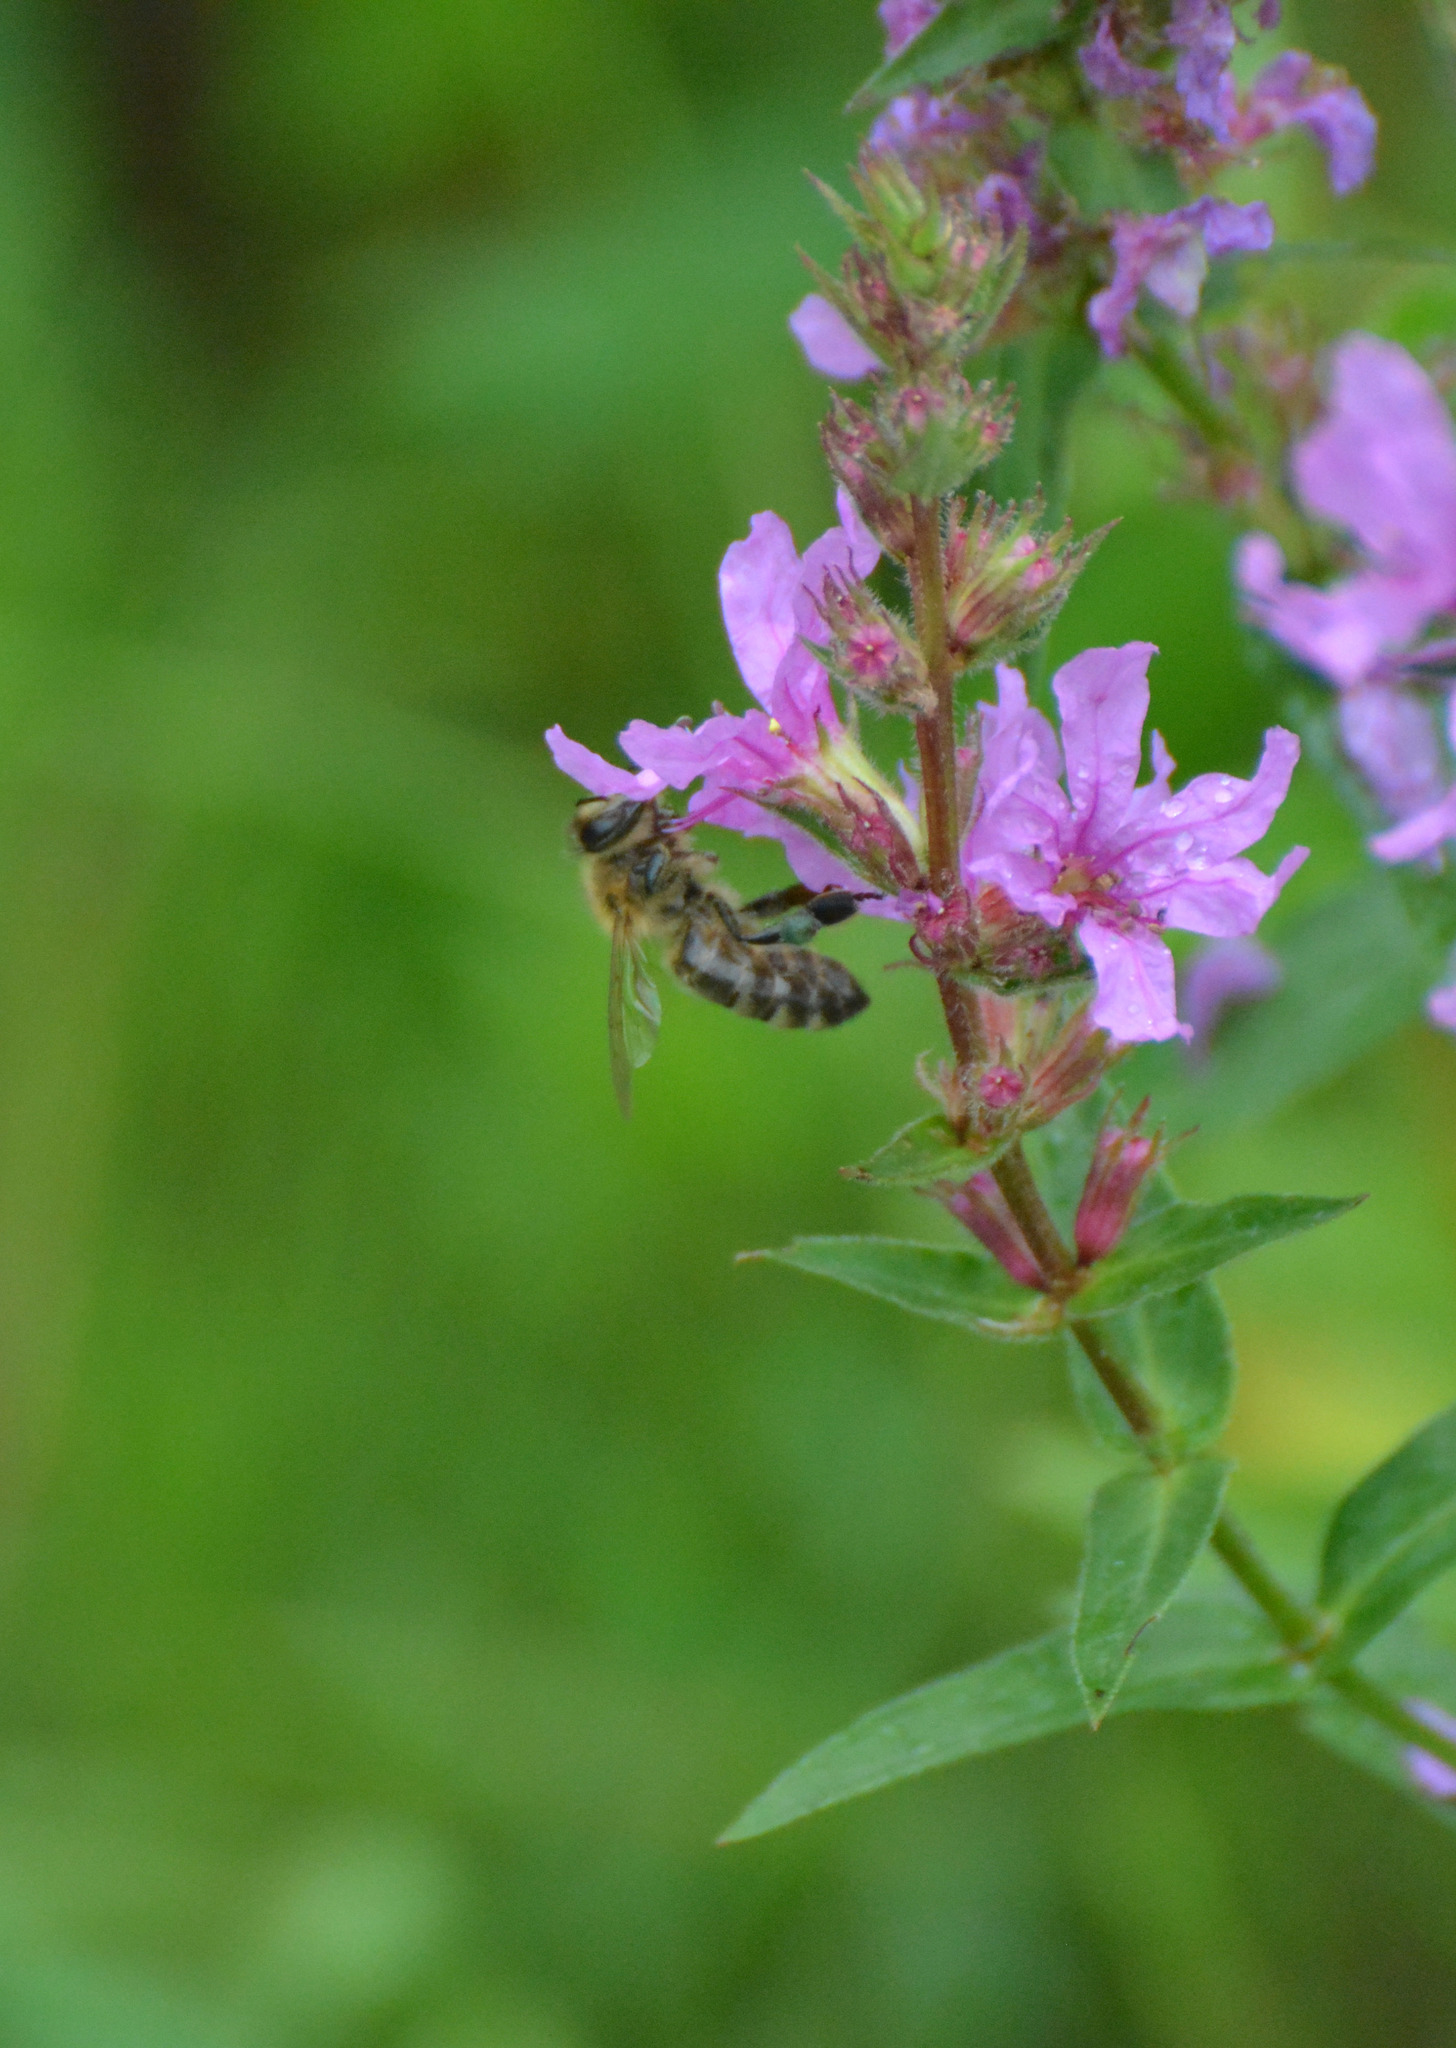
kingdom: Animalia
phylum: Arthropoda
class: Insecta
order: Hymenoptera
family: Apidae
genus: Apis
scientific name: Apis mellifera
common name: Honey bee
